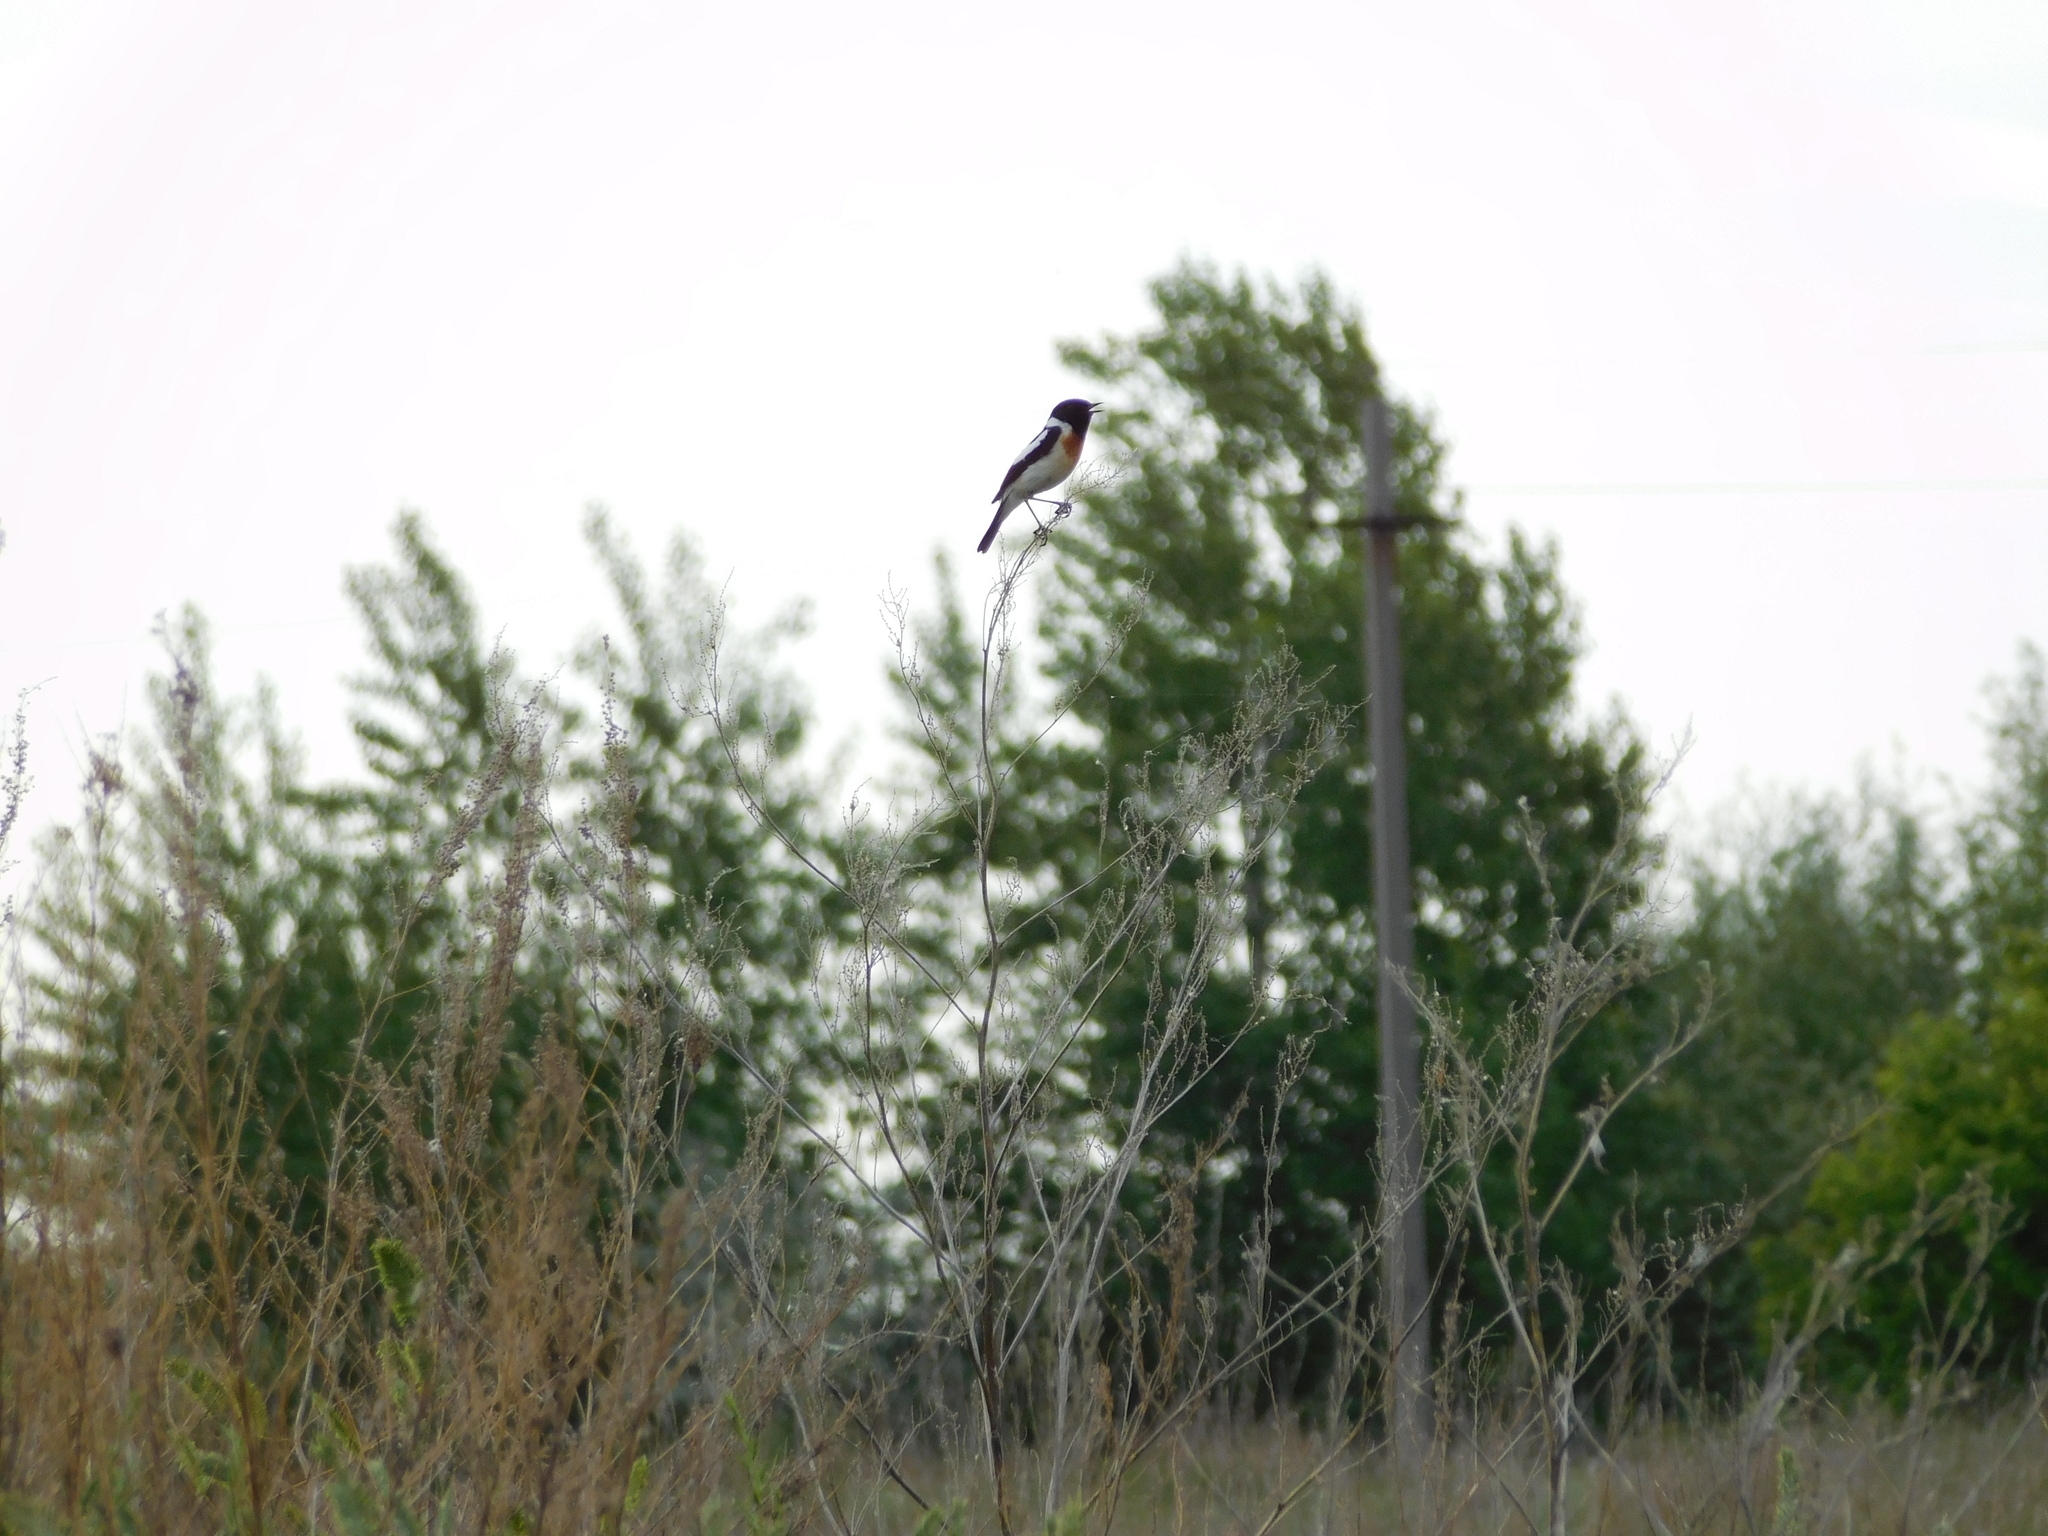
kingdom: Animalia
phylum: Chordata
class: Aves
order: Passeriformes
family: Muscicapidae
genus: Saxicola
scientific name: Saxicola maurus
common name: Siberian stonechat
